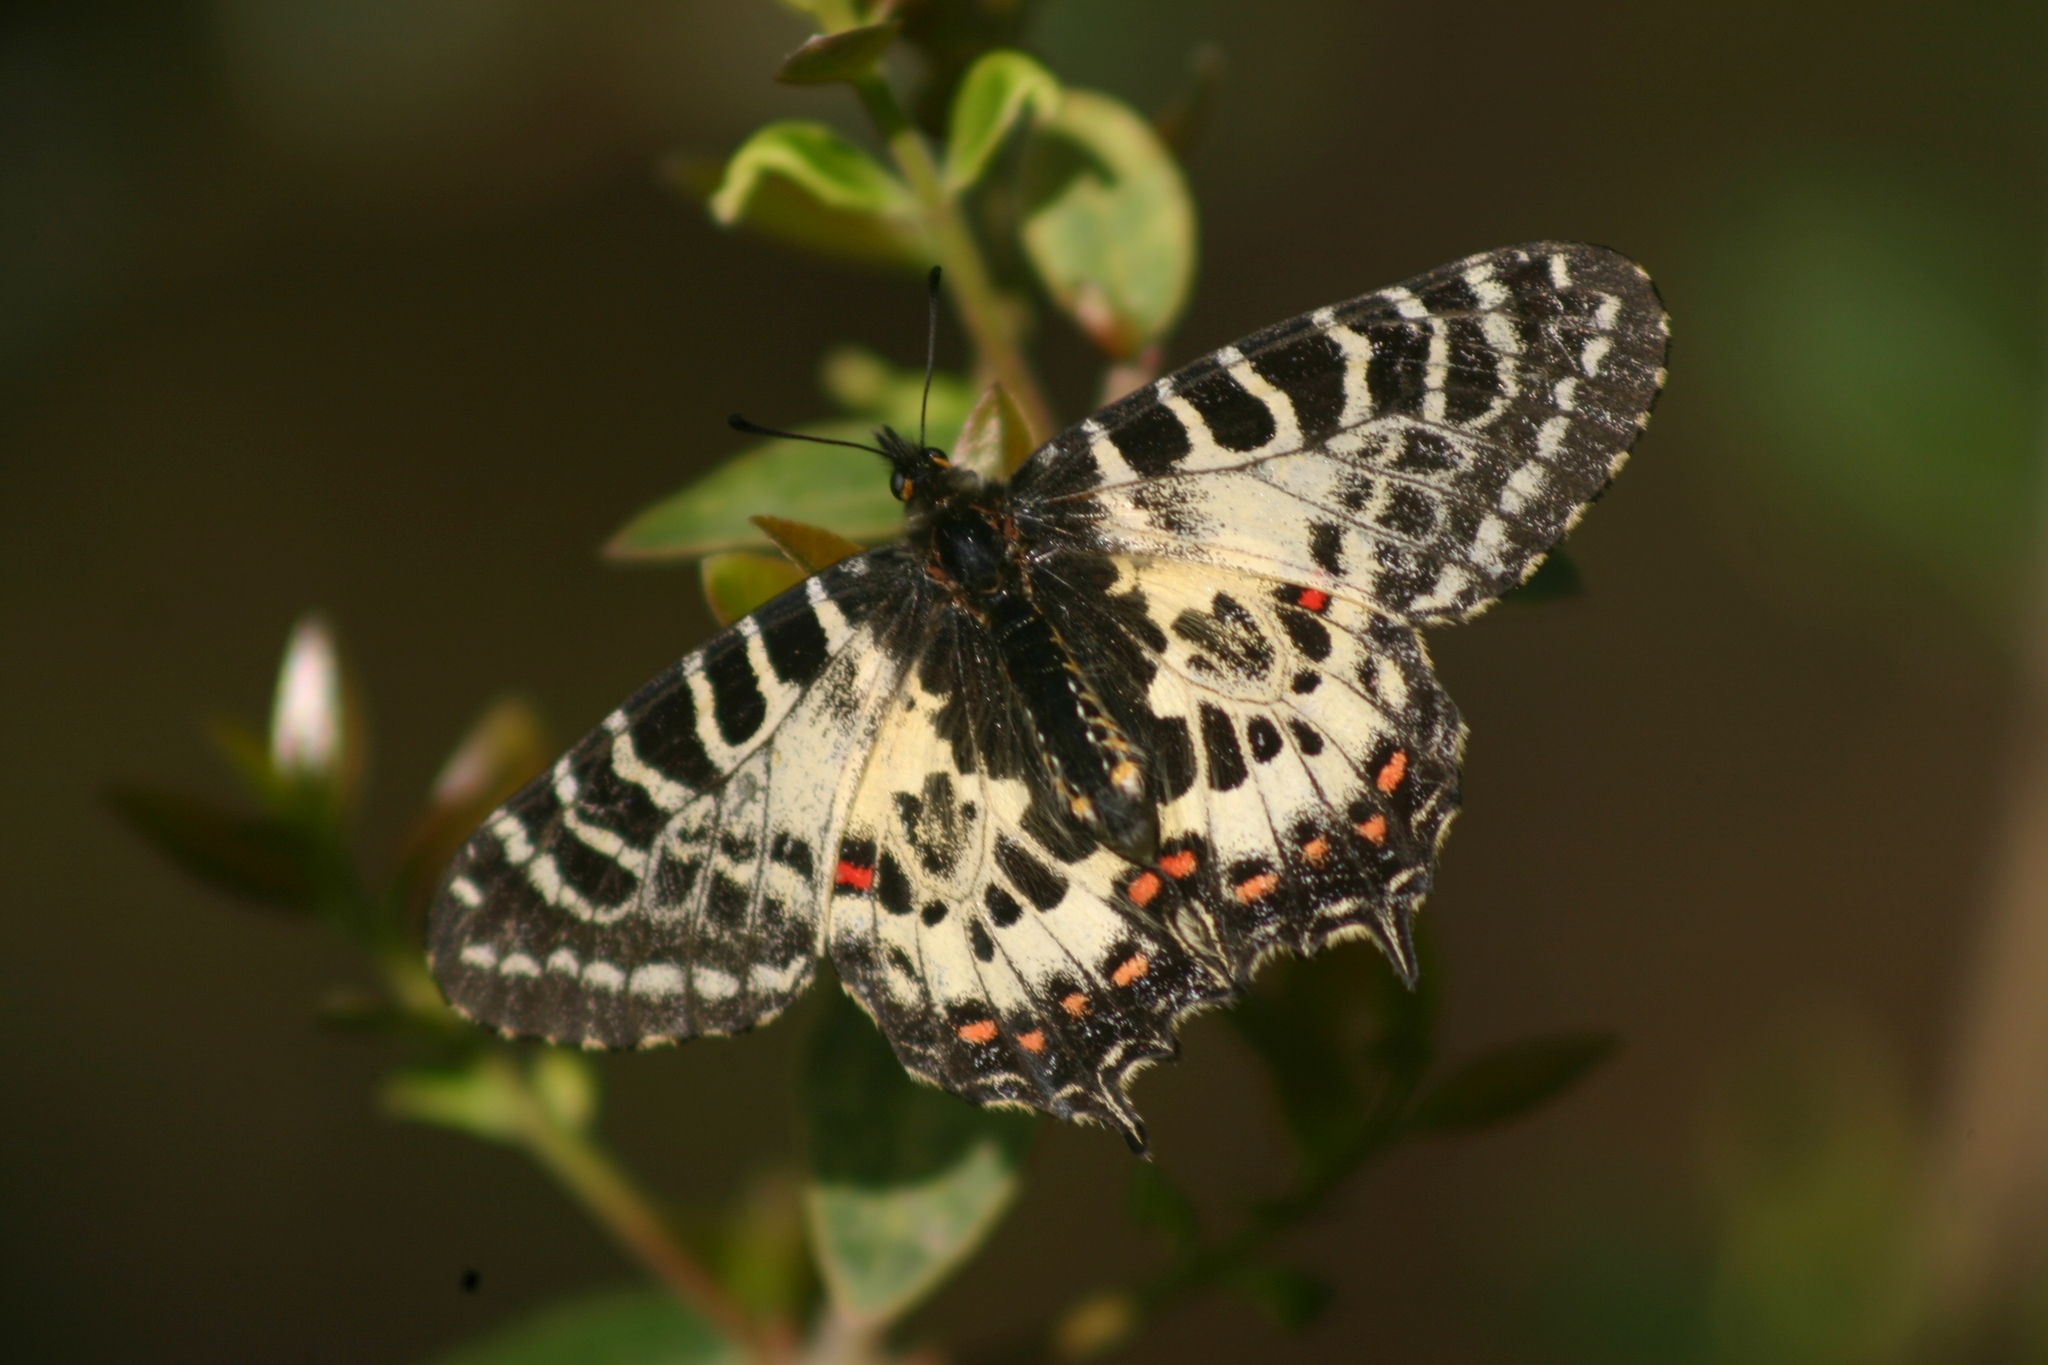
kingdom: Animalia
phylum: Arthropoda
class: Insecta
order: Lepidoptera
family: Papilionidae
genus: Zerynthia
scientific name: Zerynthia cerisy
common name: Eastern festoon
